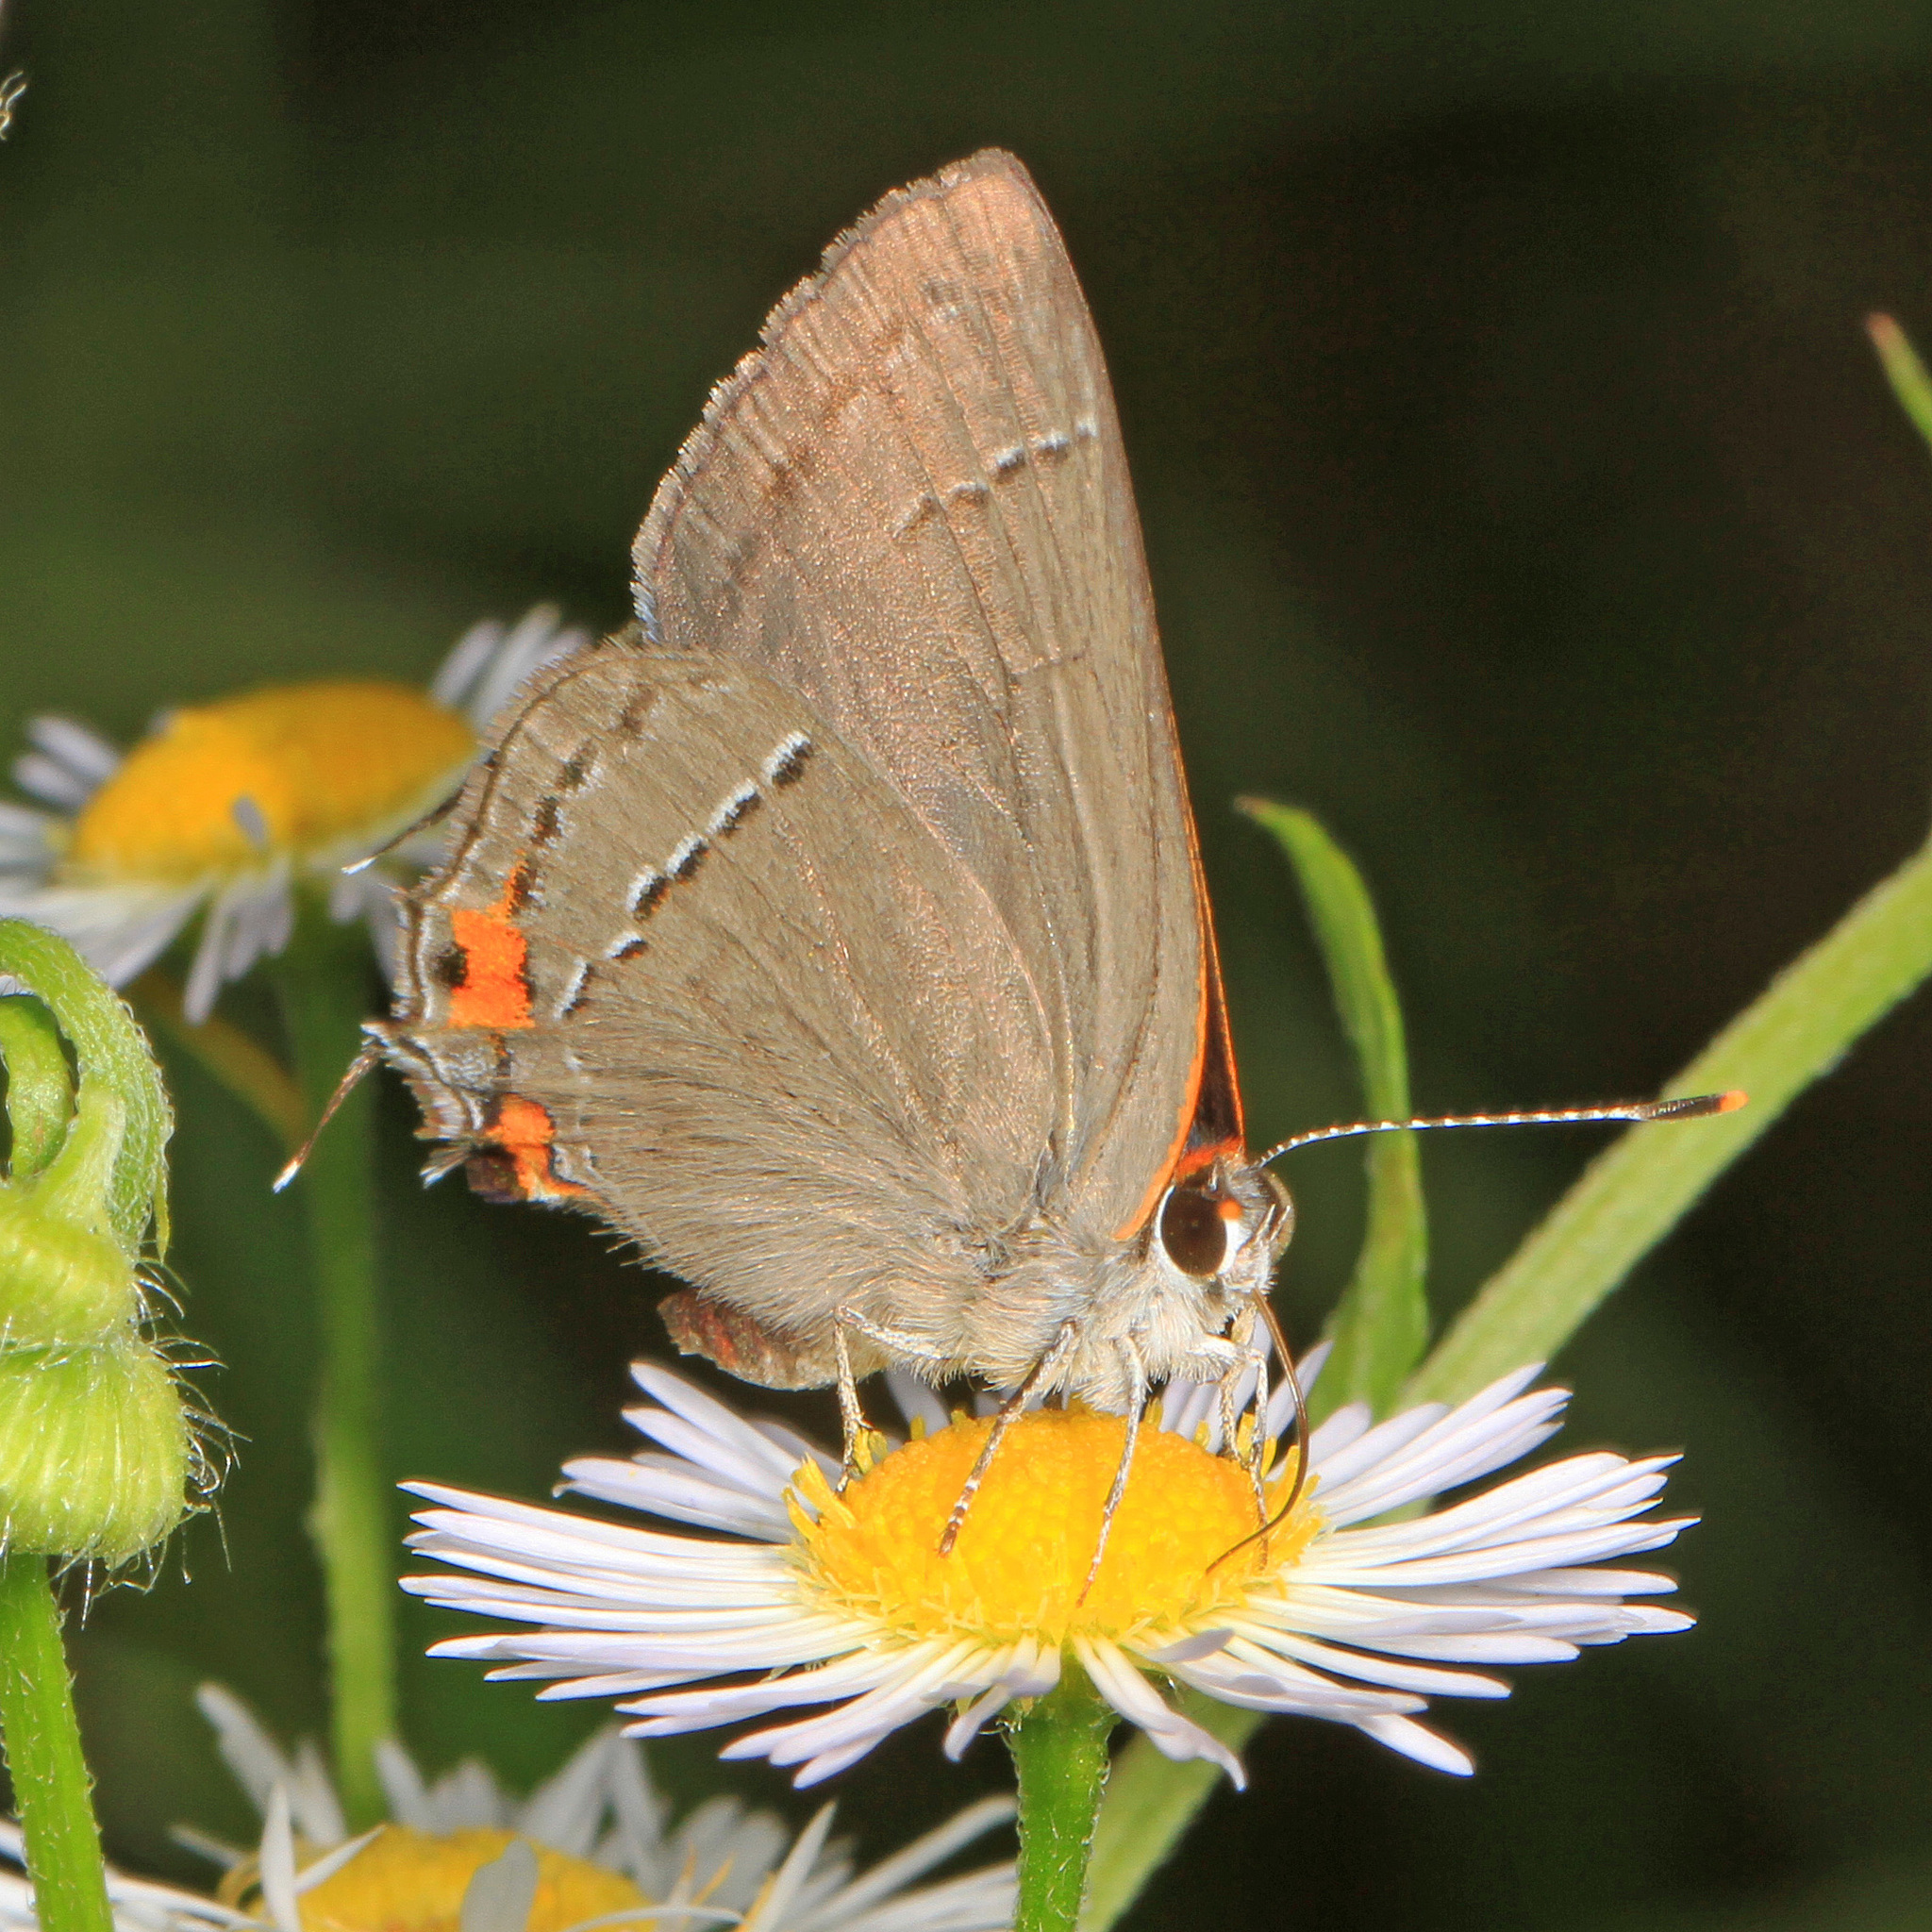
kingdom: Animalia
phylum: Arthropoda
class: Insecta
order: Lepidoptera
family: Lycaenidae
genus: Strymon
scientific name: Strymon melinus
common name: Gray hairstreak
